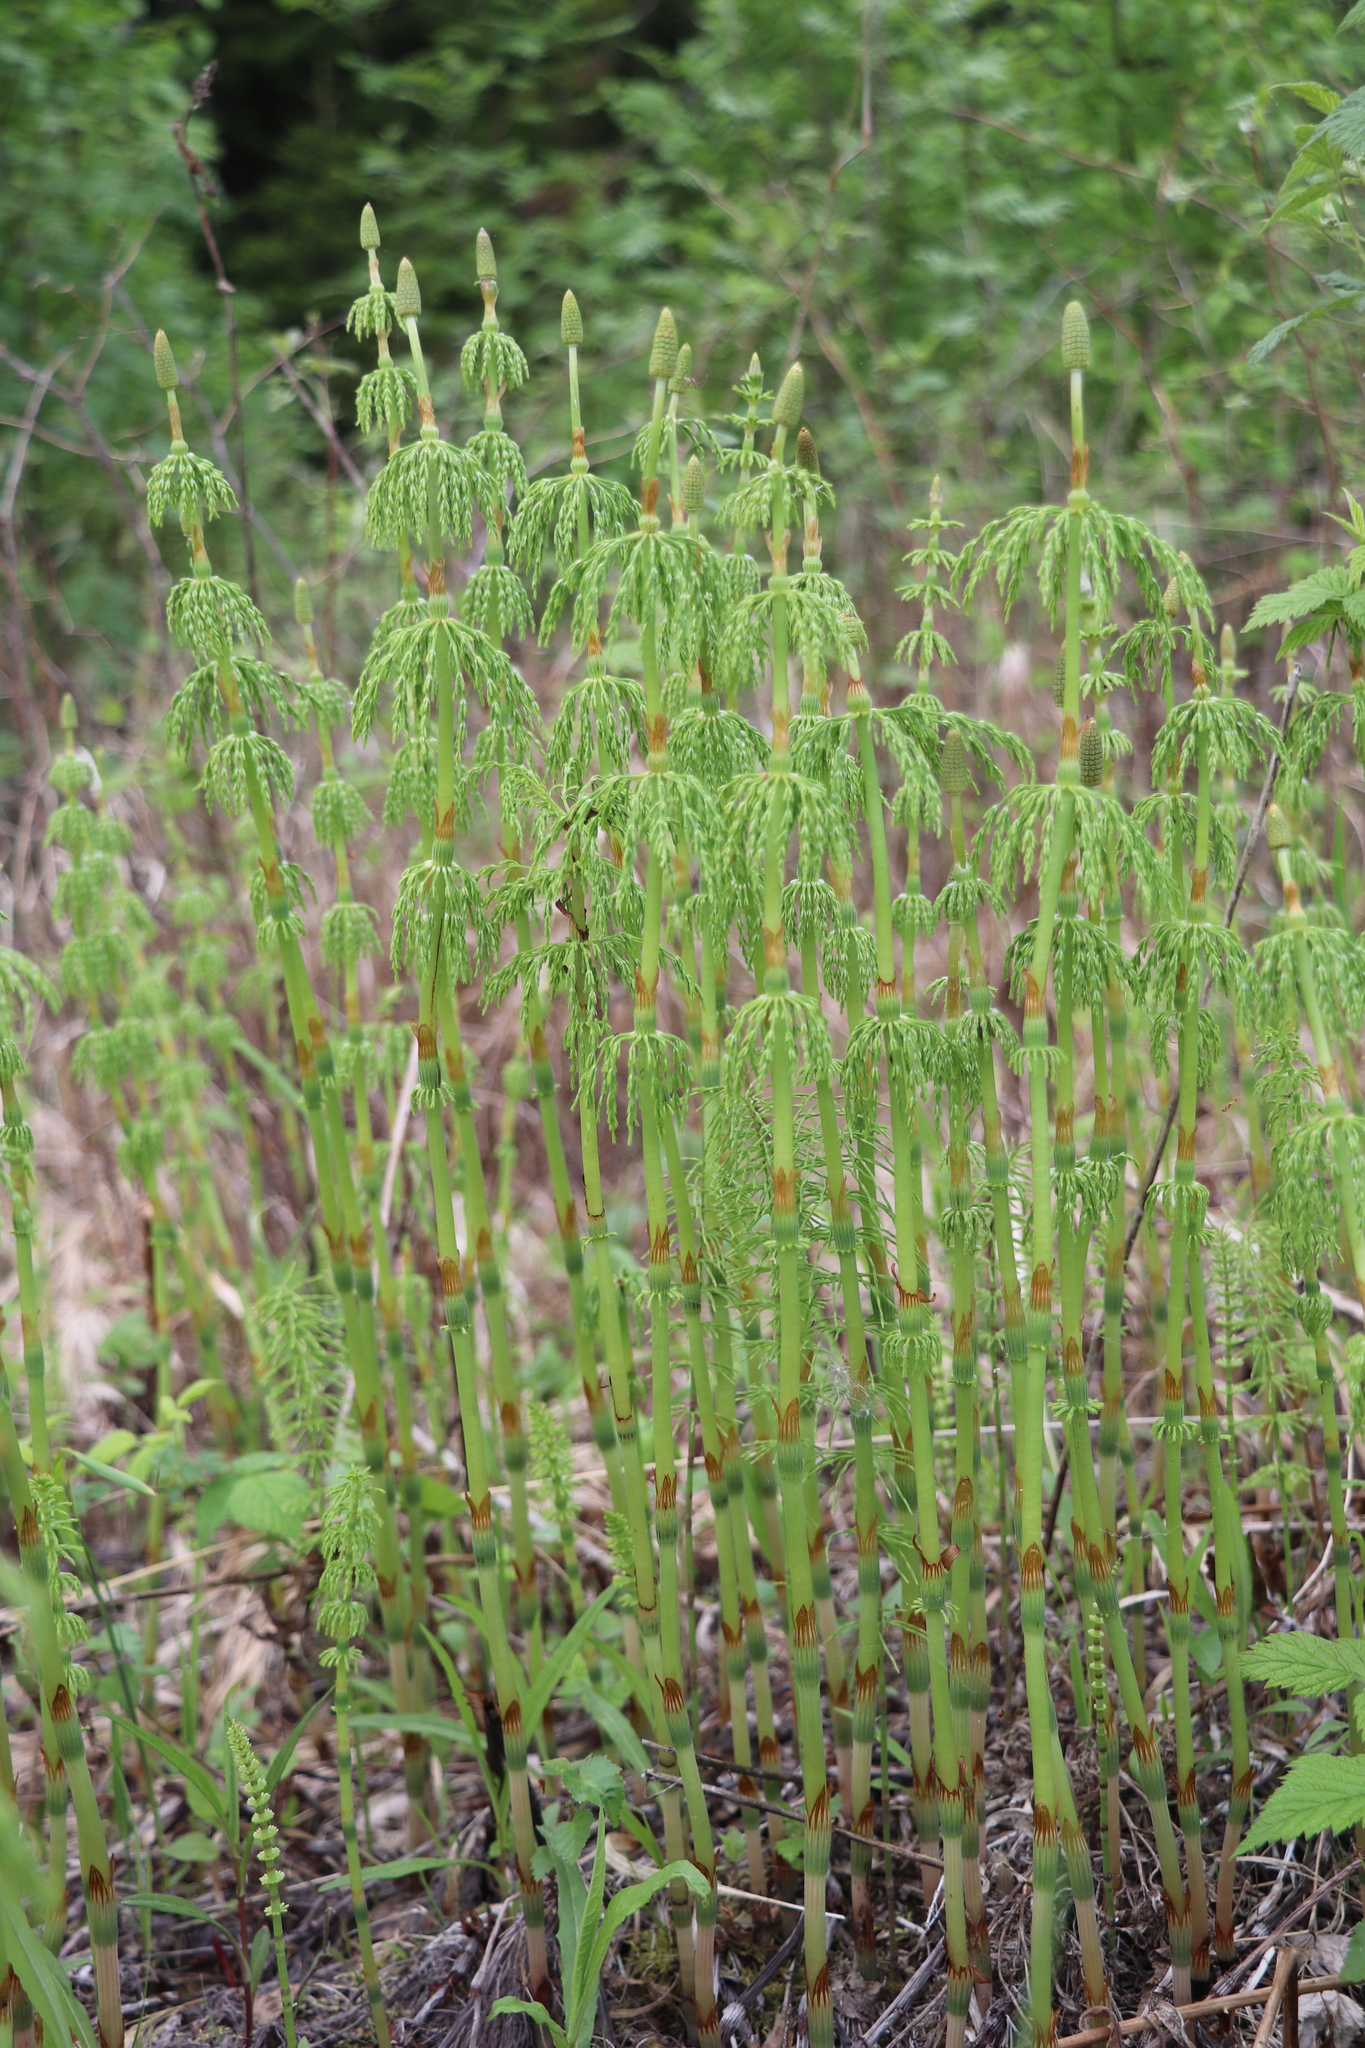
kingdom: Plantae
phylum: Tracheophyta
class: Polypodiopsida
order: Equisetales
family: Equisetaceae
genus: Equisetum
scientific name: Equisetum sylvaticum
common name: Wood horsetail
